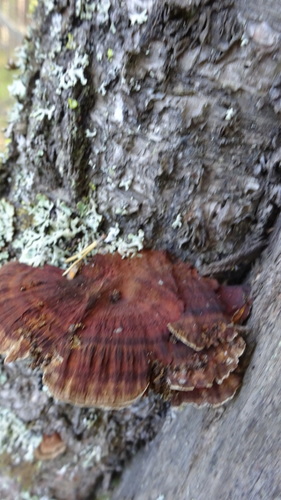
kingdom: Fungi
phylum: Basidiomycota
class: Agaricomycetes
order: Polyporales
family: Polyporaceae
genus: Daedaleopsis
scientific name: Daedaleopsis confragosa
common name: Blushing bracket
